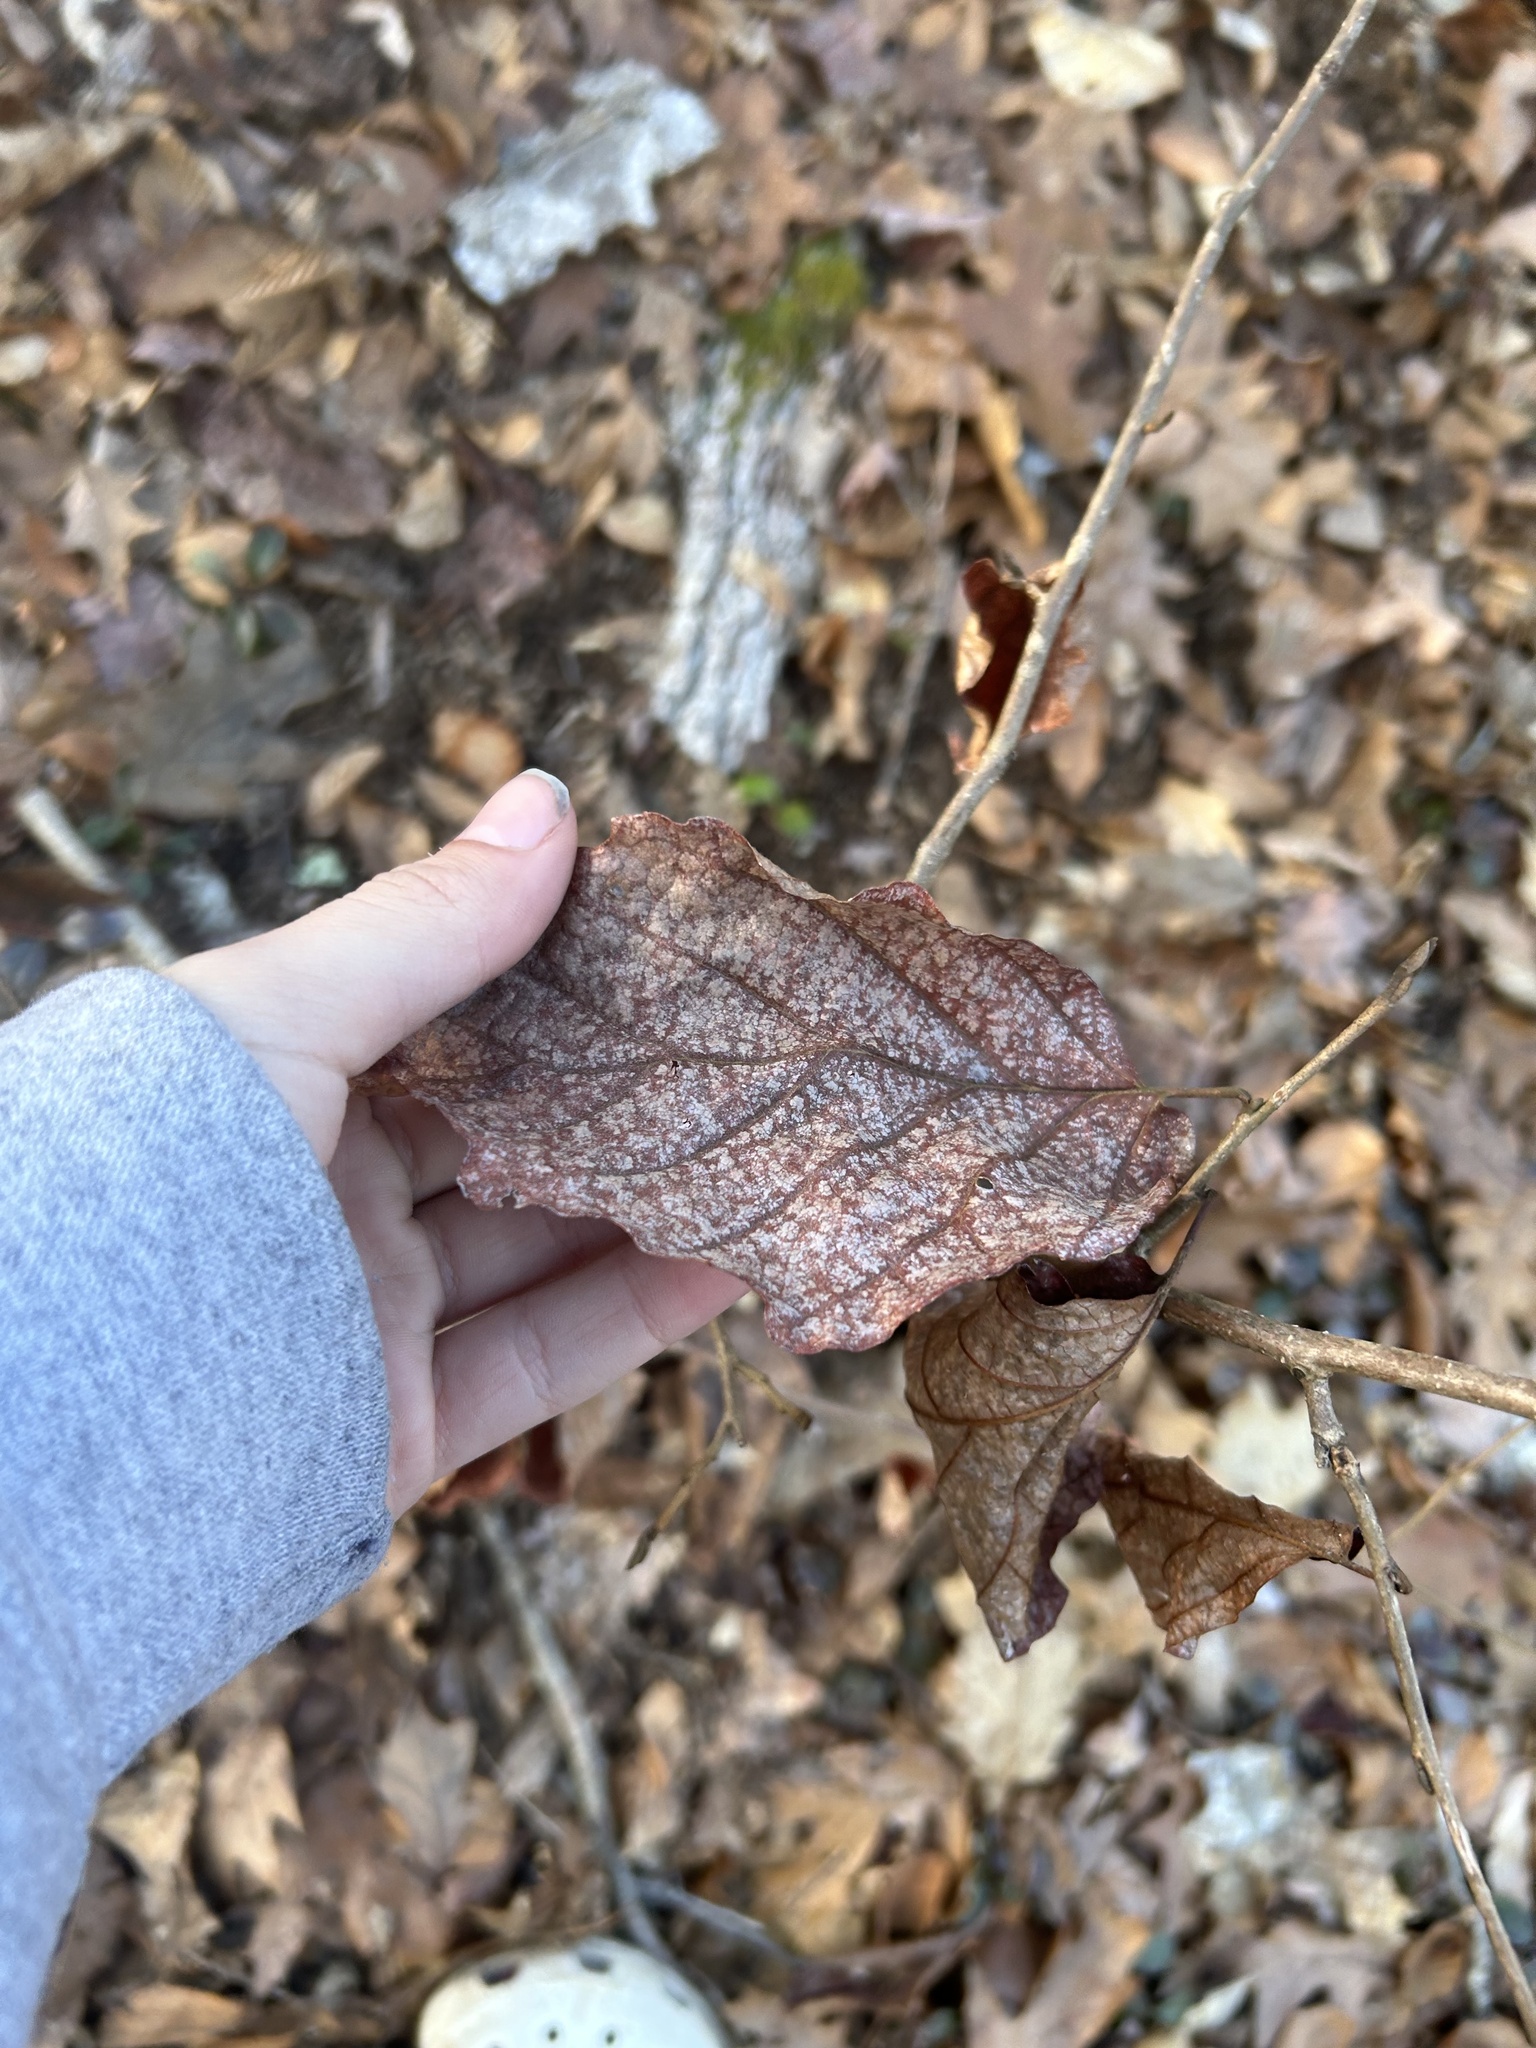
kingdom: Plantae
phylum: Tracheophyta
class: Magnoliopsida
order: Saxifragales
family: Hamamelidaceae
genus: Hamamelis
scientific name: Hamamelis virginiana
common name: Witch-hazel
